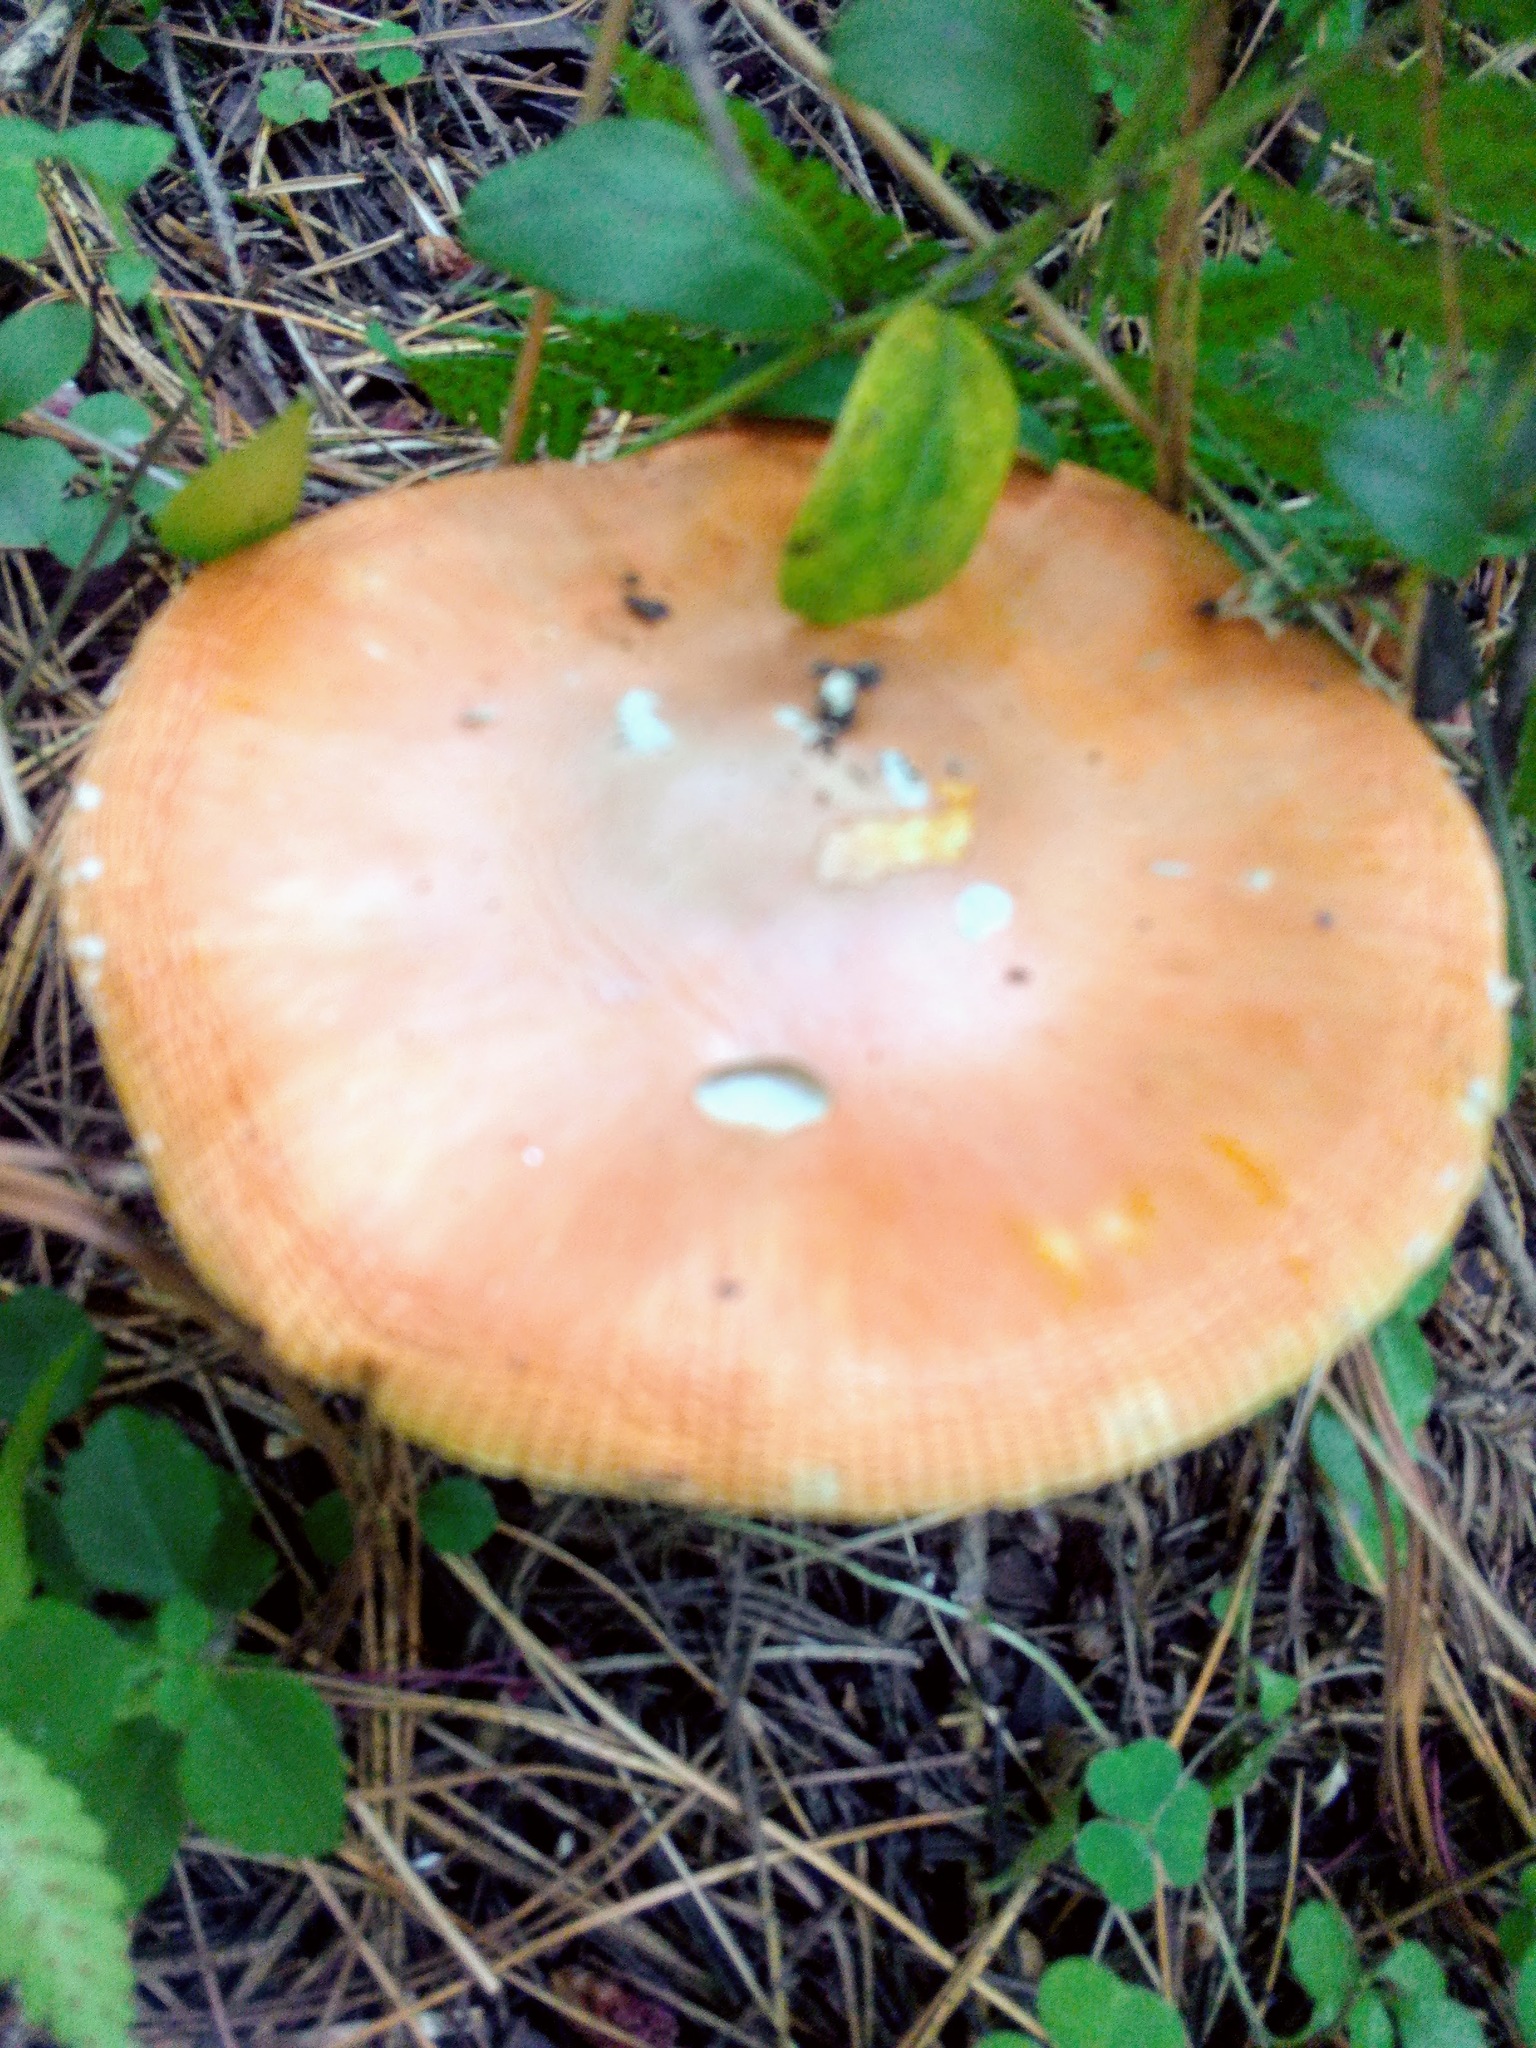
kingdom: Fungi
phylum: Basidiomycota
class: Agaricomycetes
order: Agaricales
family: Amanitaceae
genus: Amanita
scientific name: Amanita muscaria
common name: Fly agaric
